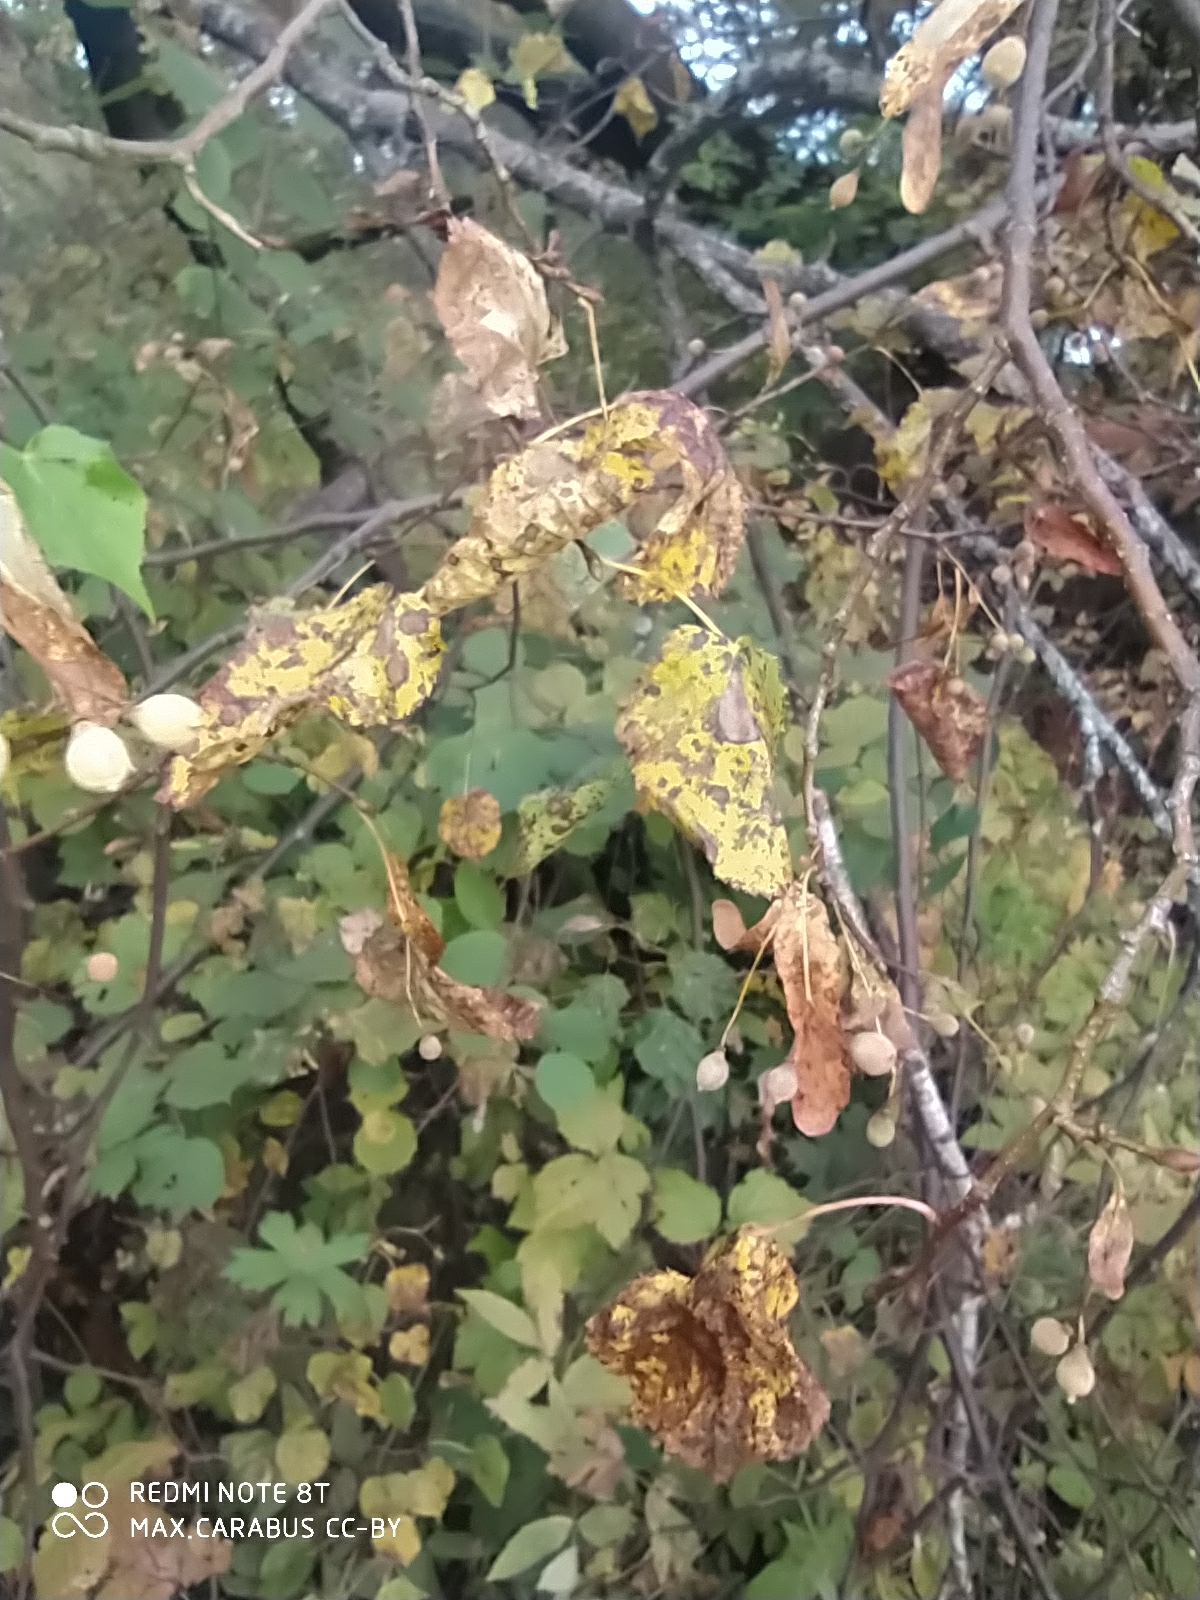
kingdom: Plantae
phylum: Tracheophyta
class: Magnoliopsida
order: Malvales
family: Malvaceae
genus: Tilia
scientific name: Tilia cordata
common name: Small-leaved lime
